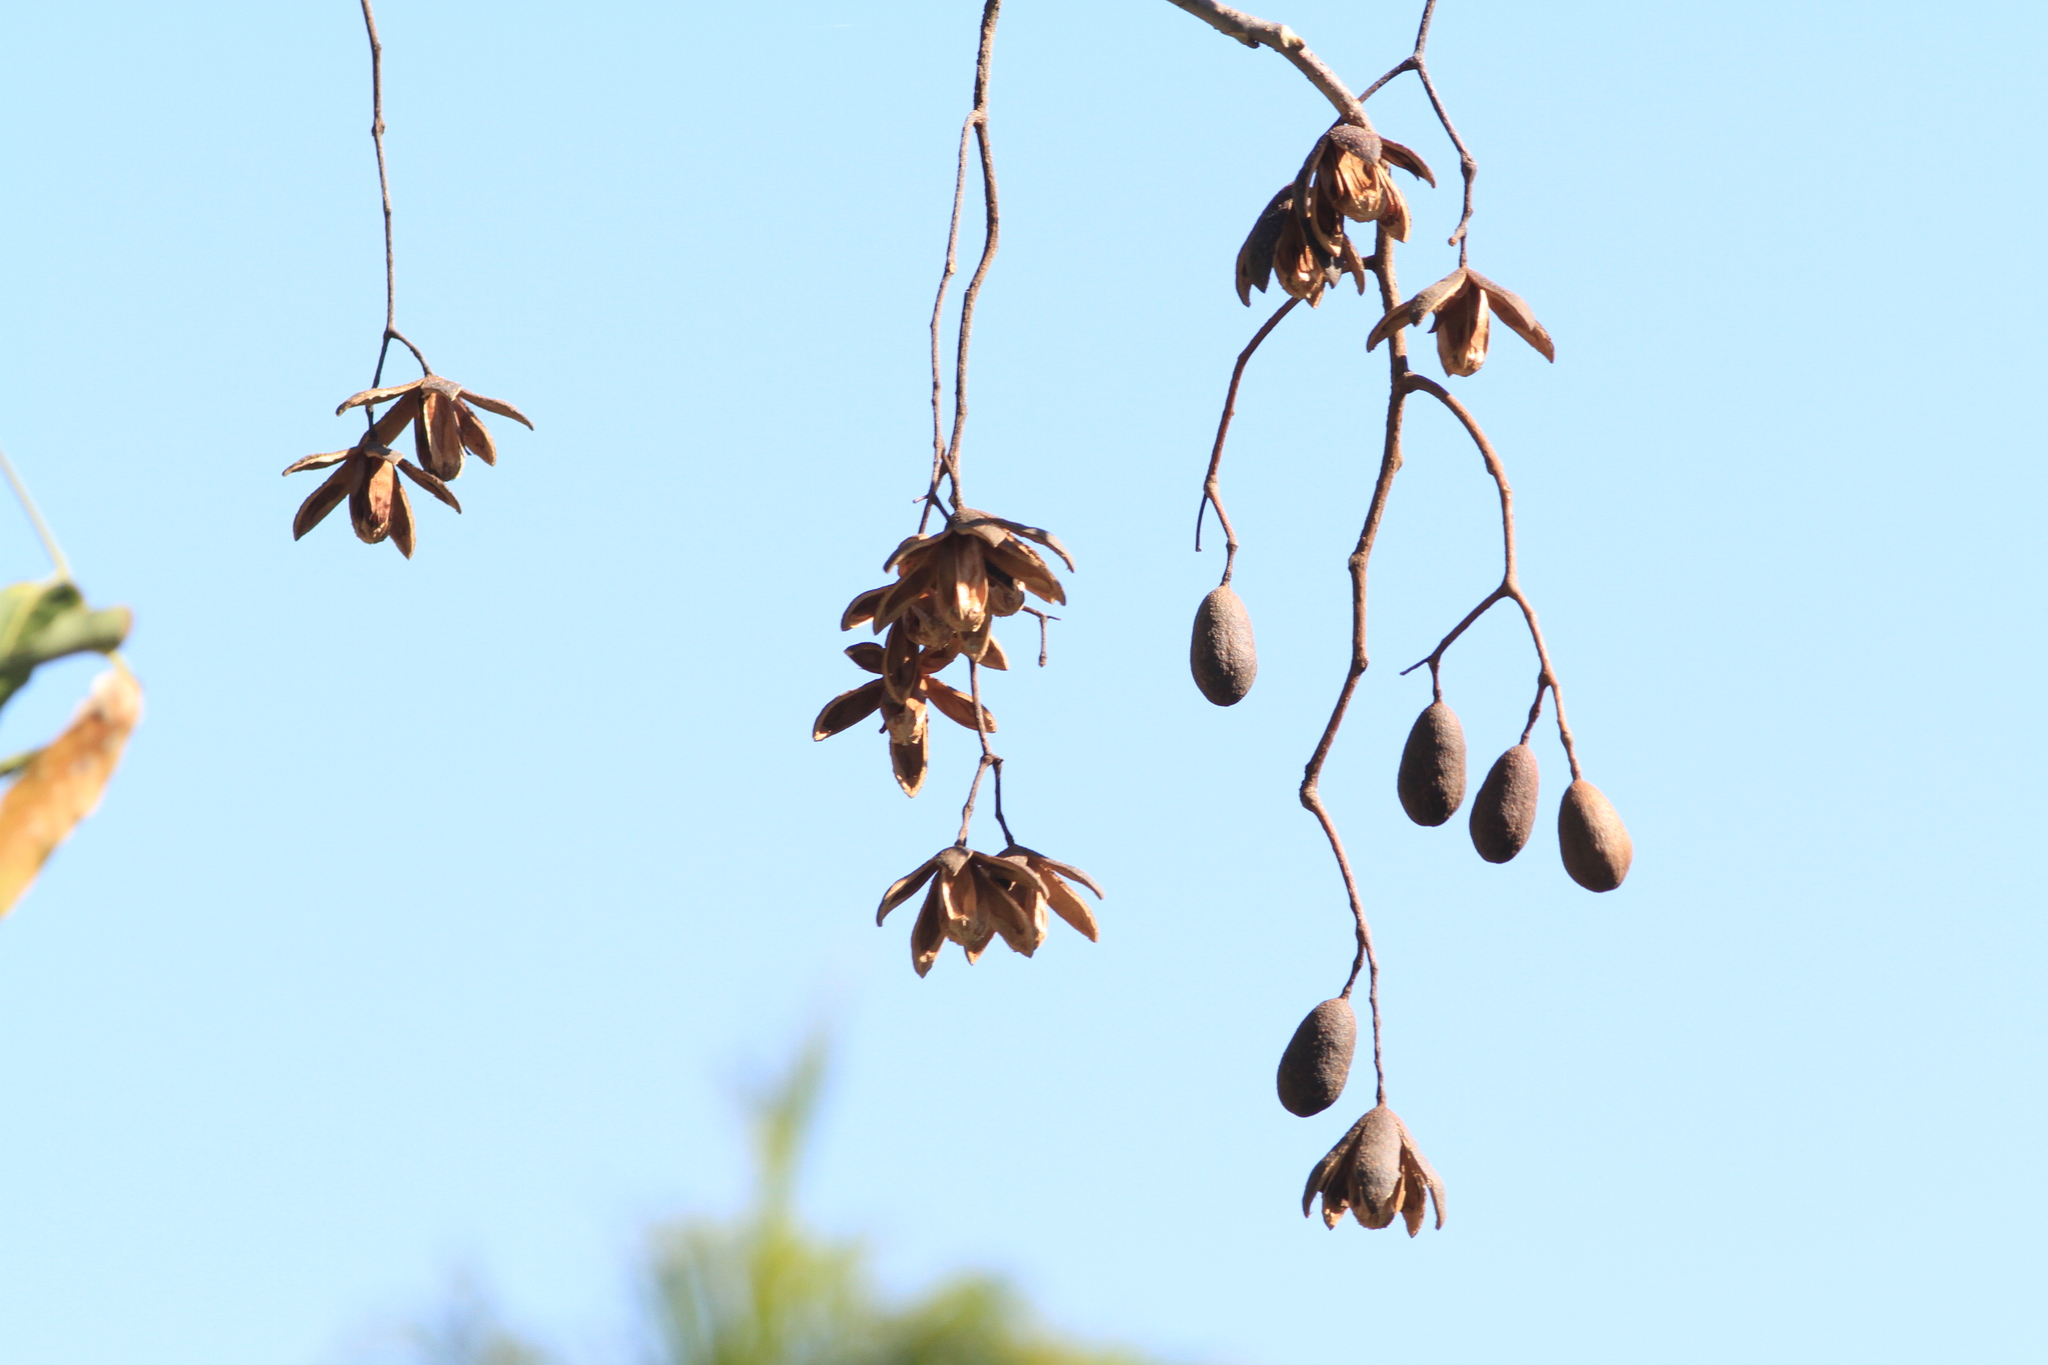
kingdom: Plantae
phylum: Tracheophyta
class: Magnoliopsida
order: Sapindales
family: Meliaceae
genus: Cedrela
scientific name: Cedrela odorata
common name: Red cedar
